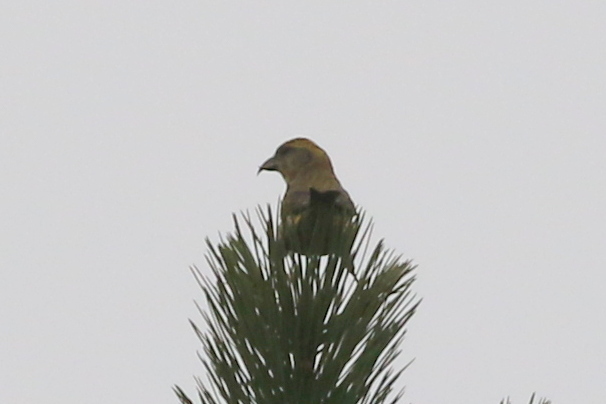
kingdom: Animalia
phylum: Chordata
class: Aves
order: Passeriformes
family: Fringillidae
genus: Loxia
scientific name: Loxia curvirostra
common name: Red crossbill
